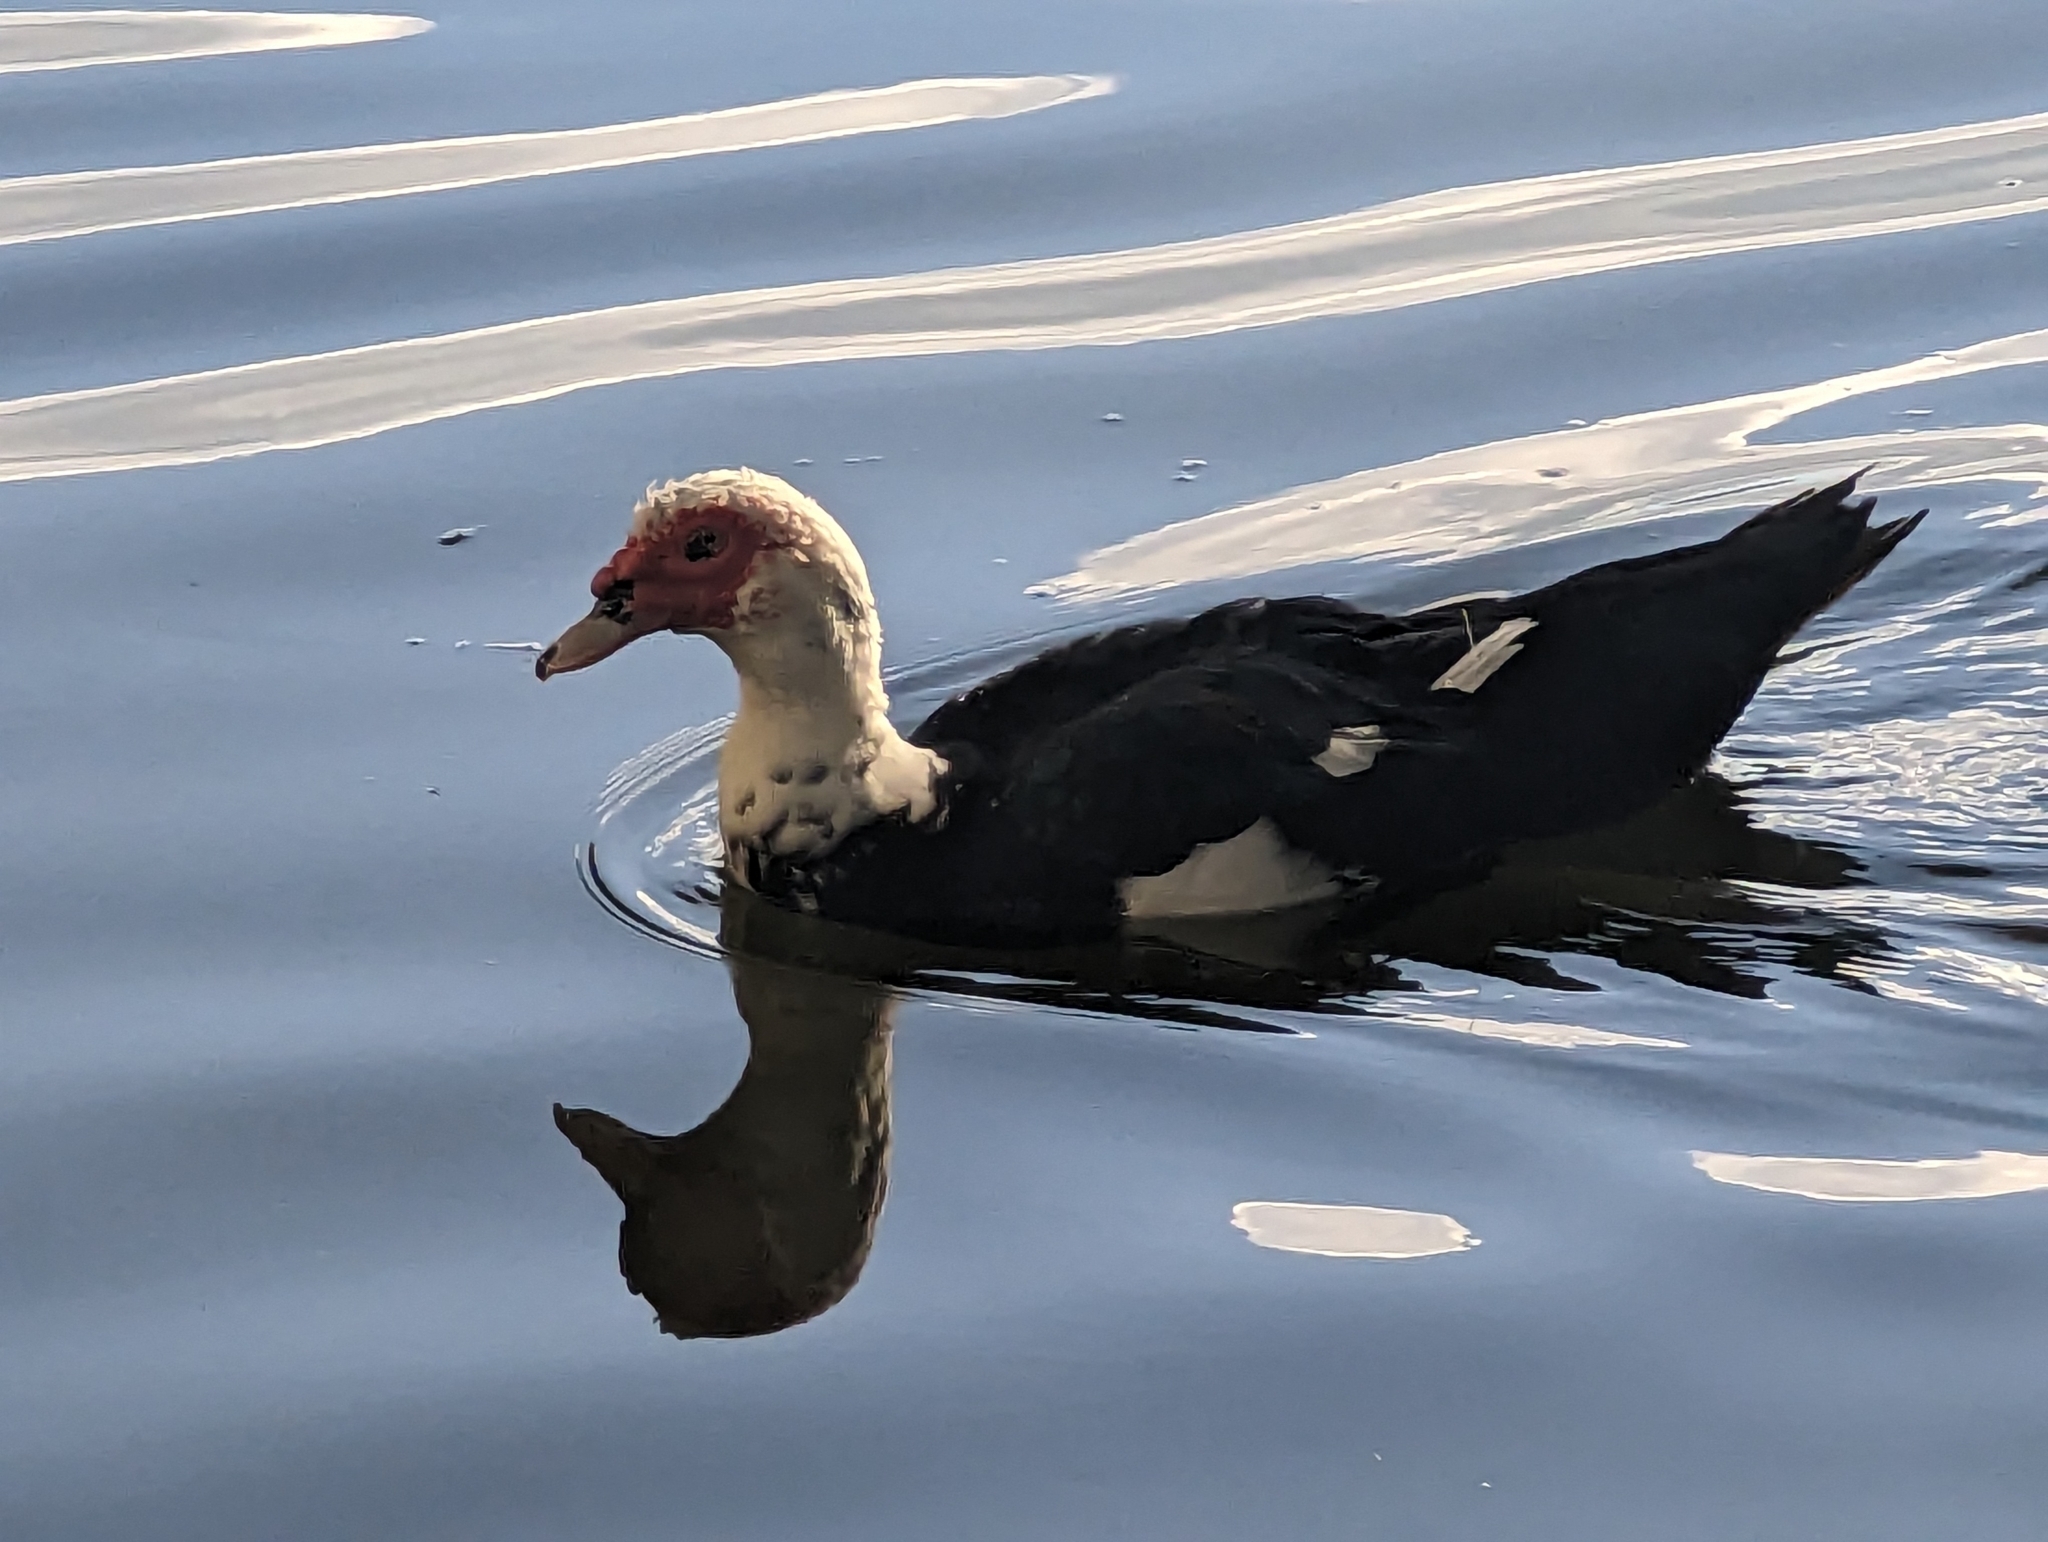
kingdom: Animalia
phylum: Chordata
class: Aves
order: Anseriformes
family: Anatidae
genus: Cairina
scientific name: Cairina moschata
